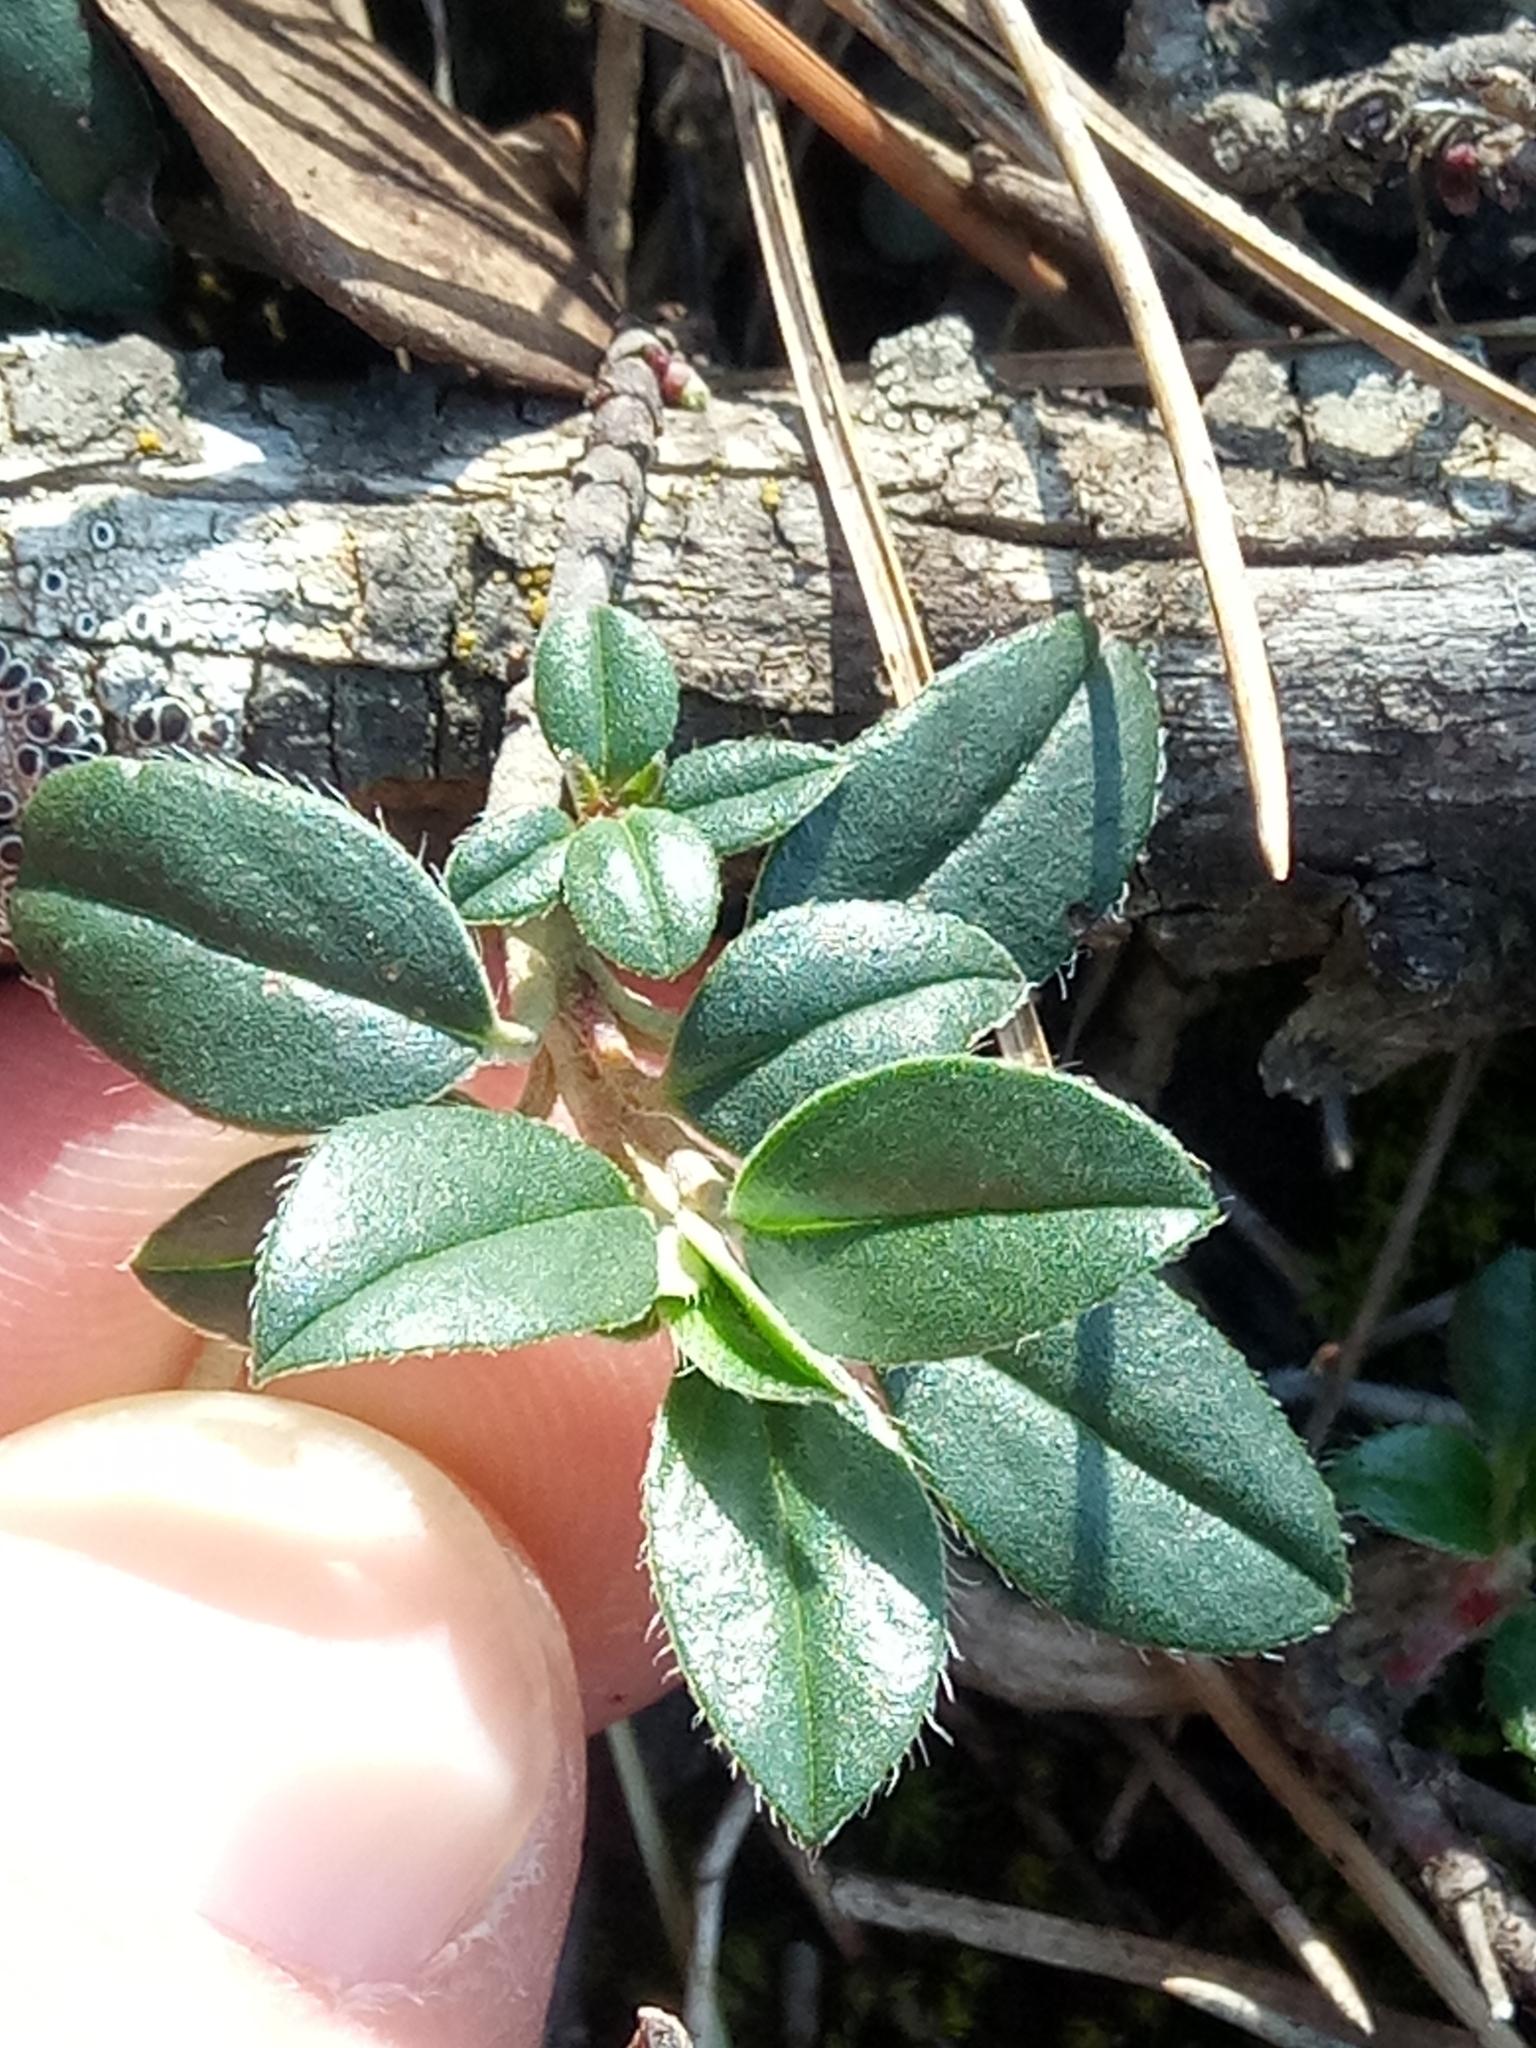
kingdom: Plantae
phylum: Tracheophyta
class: Magnoliopsida
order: Malvales
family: Cistaceae
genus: Helianthemum
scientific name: Helianthemum cinereum
